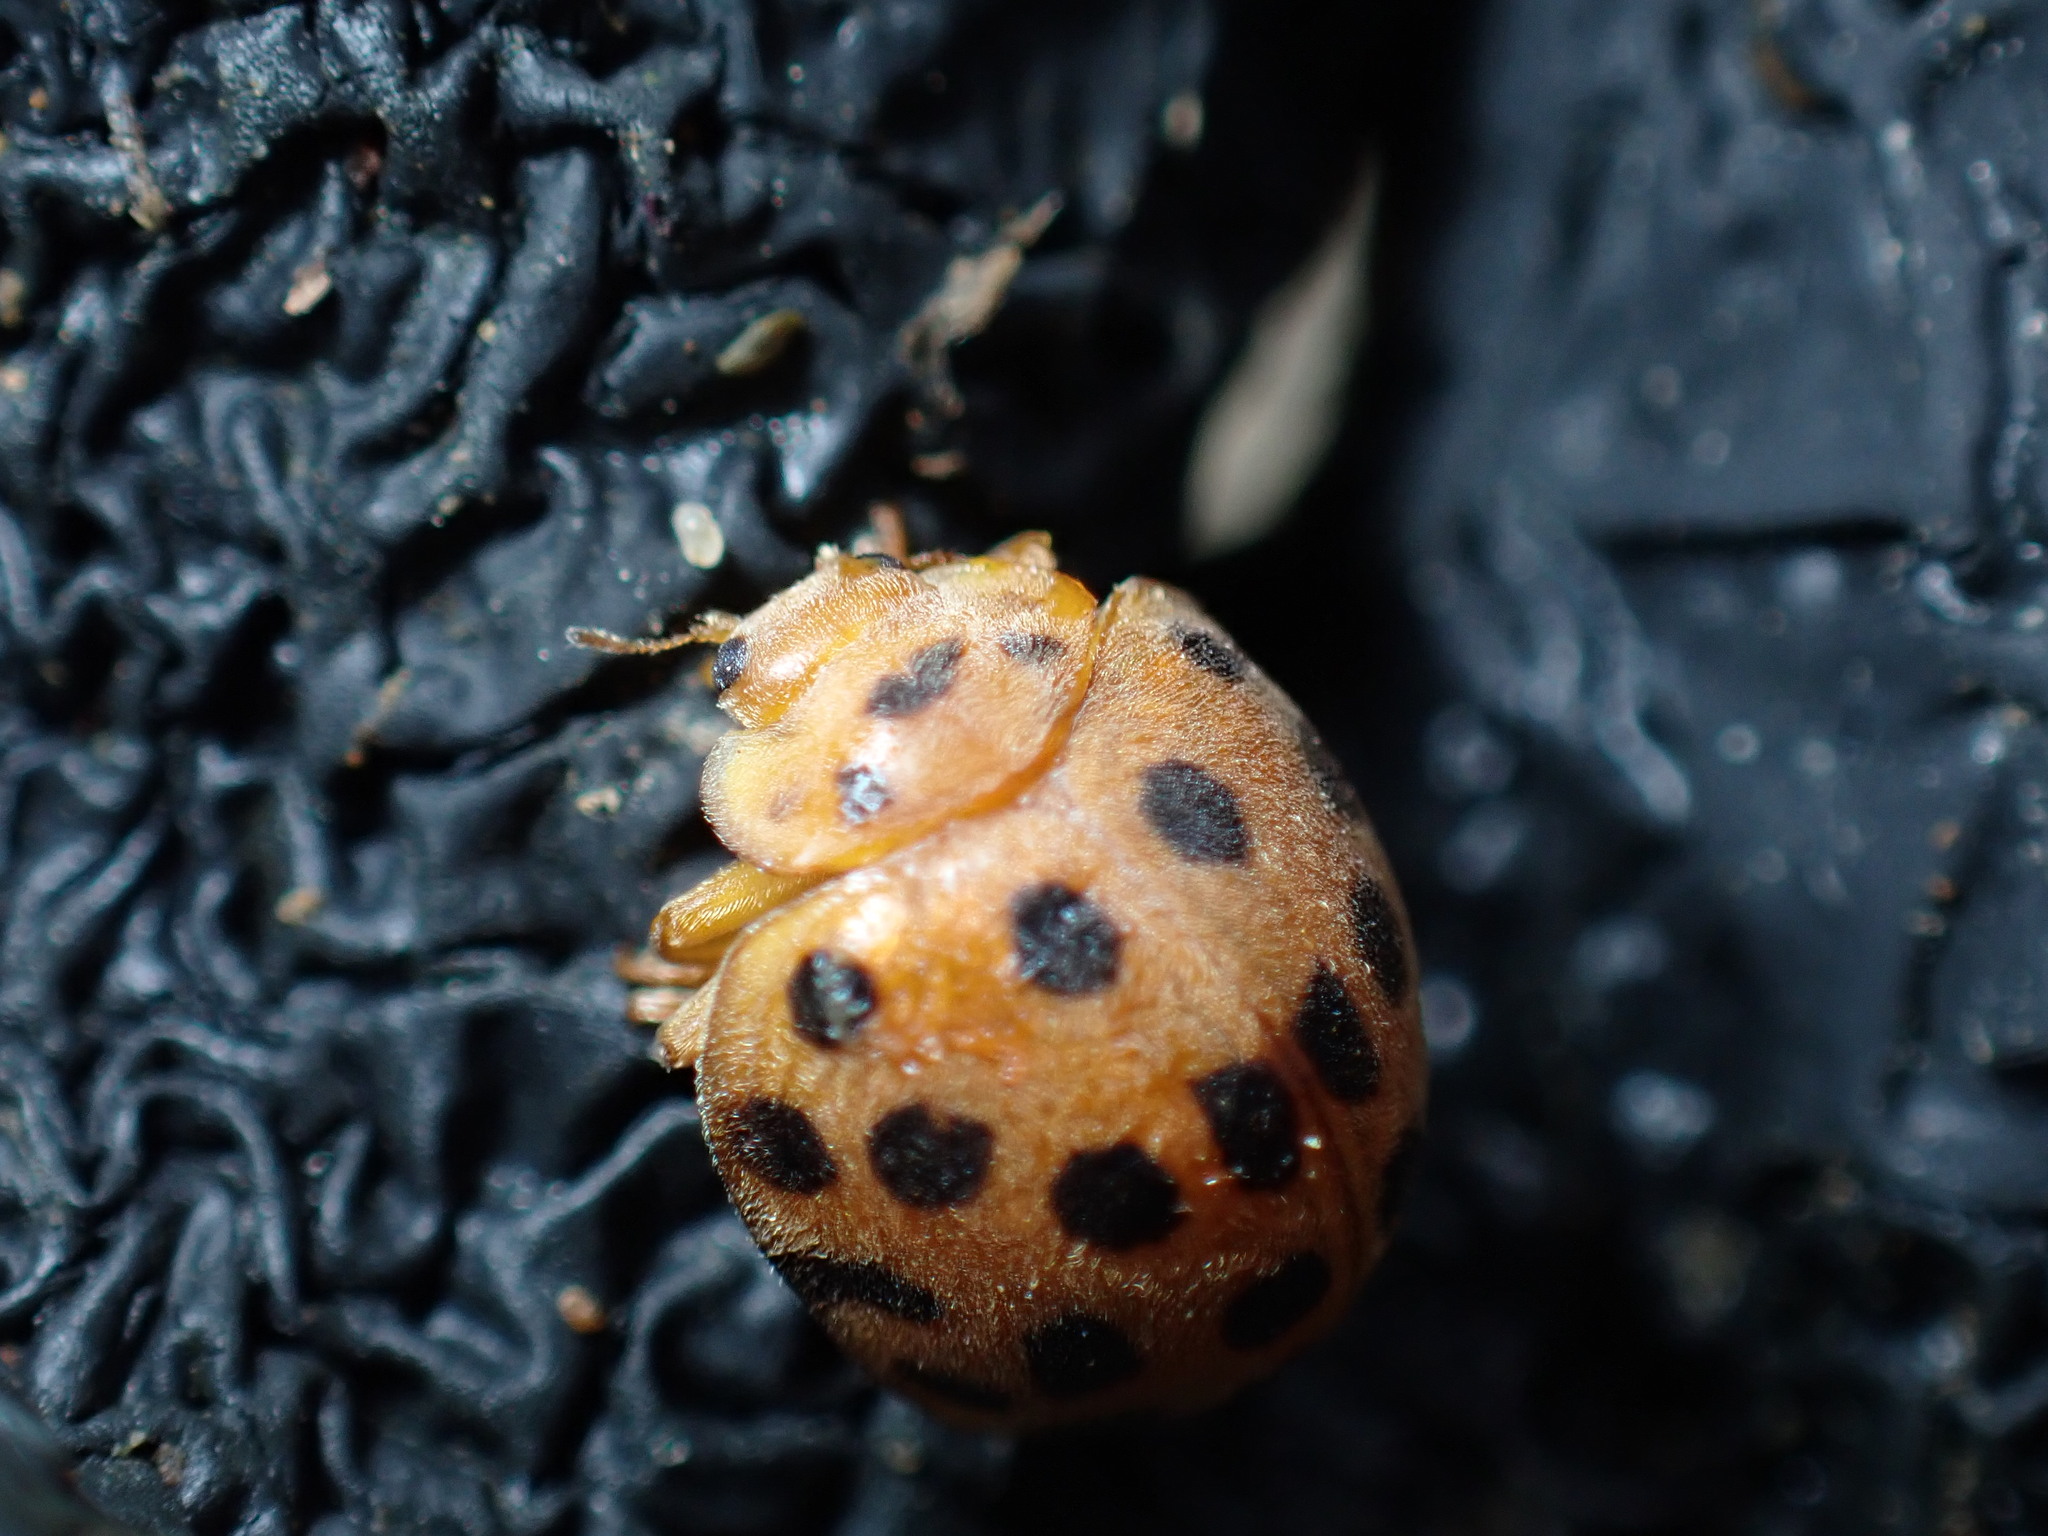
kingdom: Animalia
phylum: Arthropoda
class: Insecta
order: Coleoptera
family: Coccinellidae
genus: Henosepilachna
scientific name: Henosepilachna vigintioctopunctata
